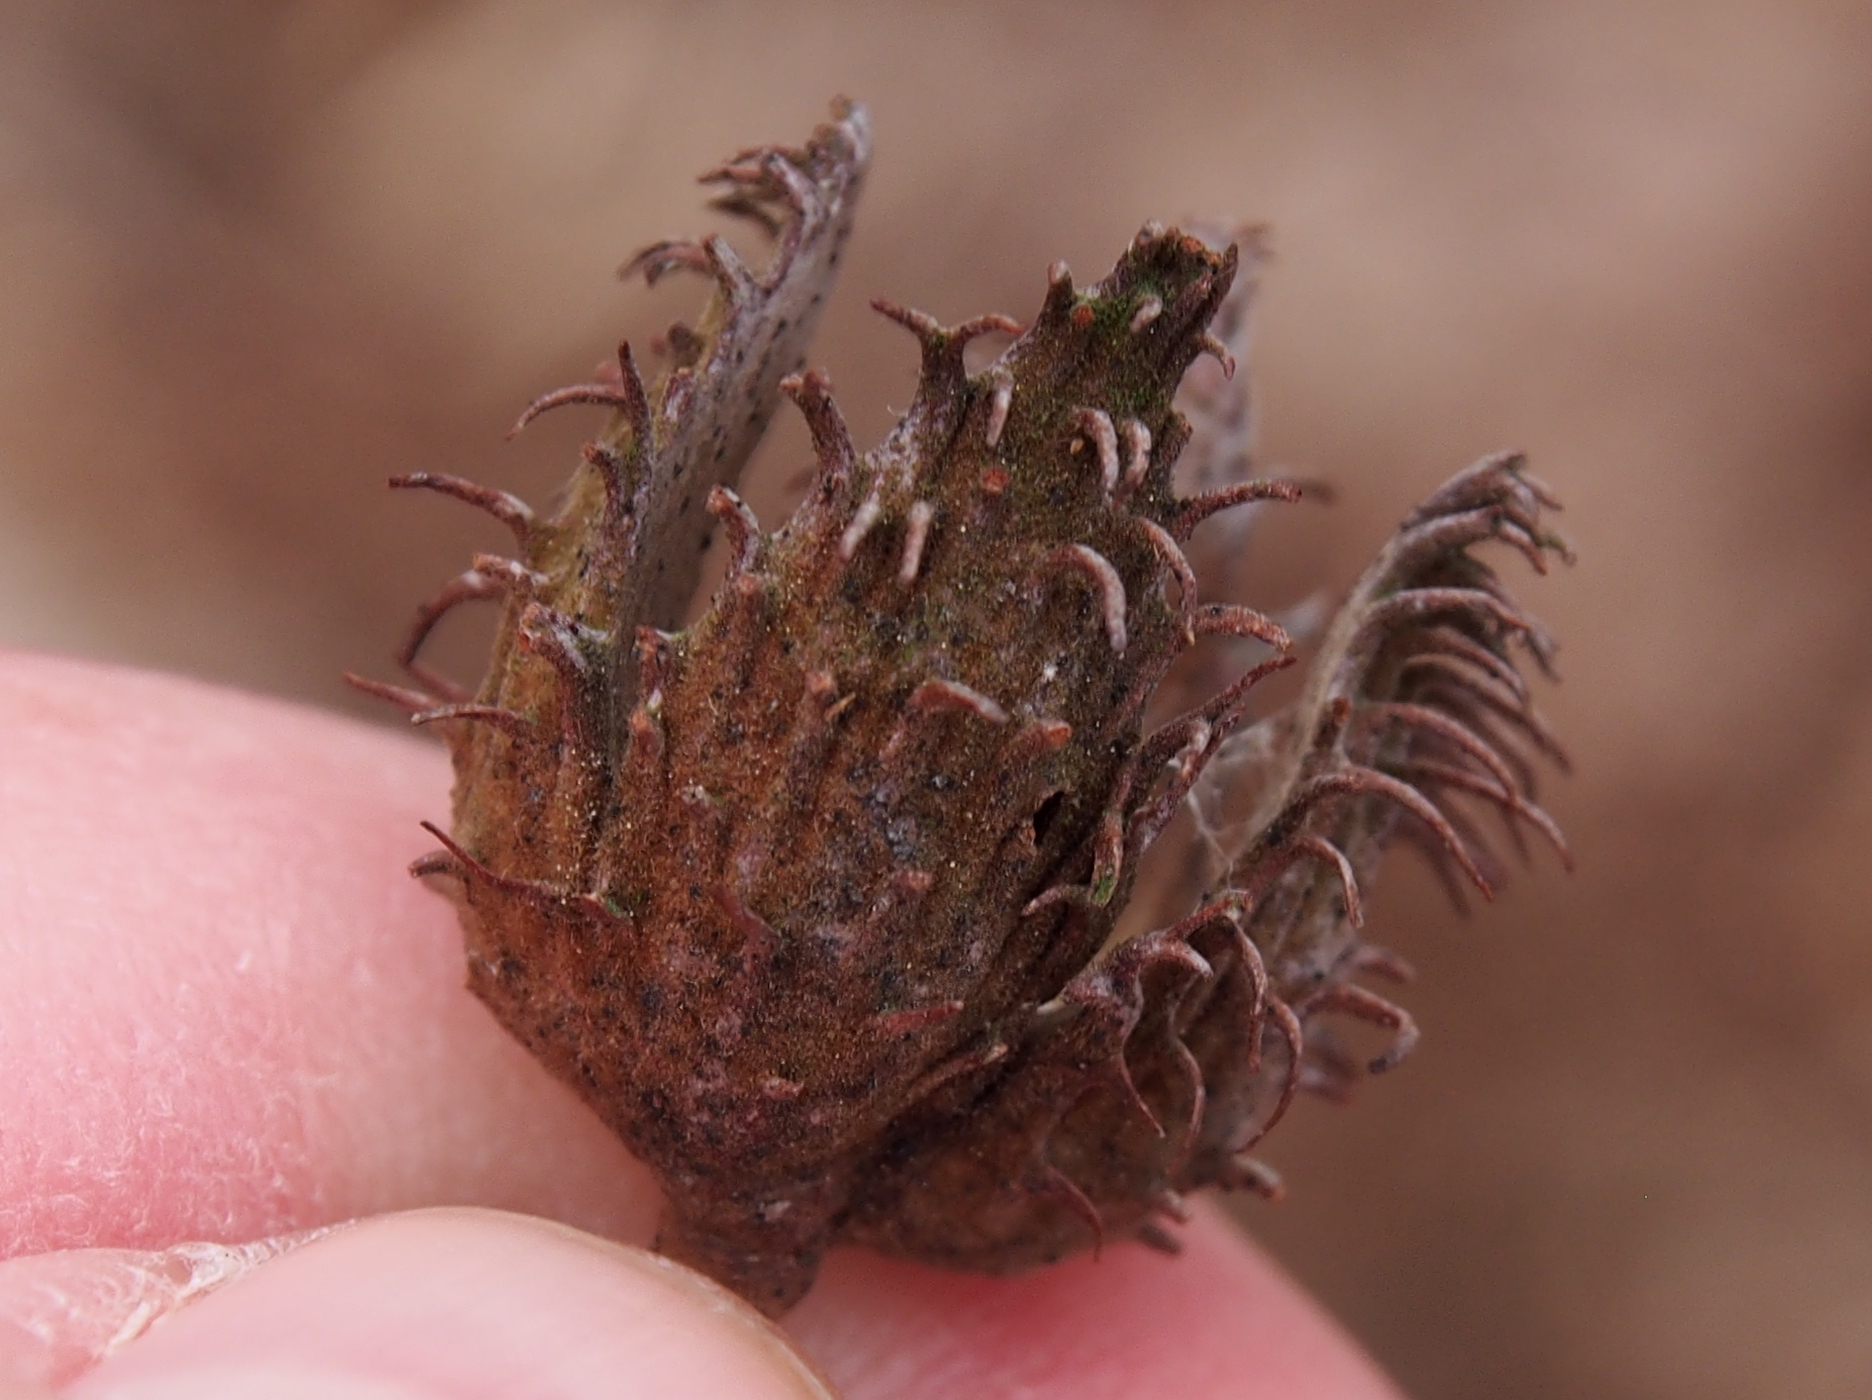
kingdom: Plantae
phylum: Tracheophyta
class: Magnoliopsida
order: Fagales
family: Fagaceae
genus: Fagus
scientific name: Fagus grandifolia
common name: American beech
